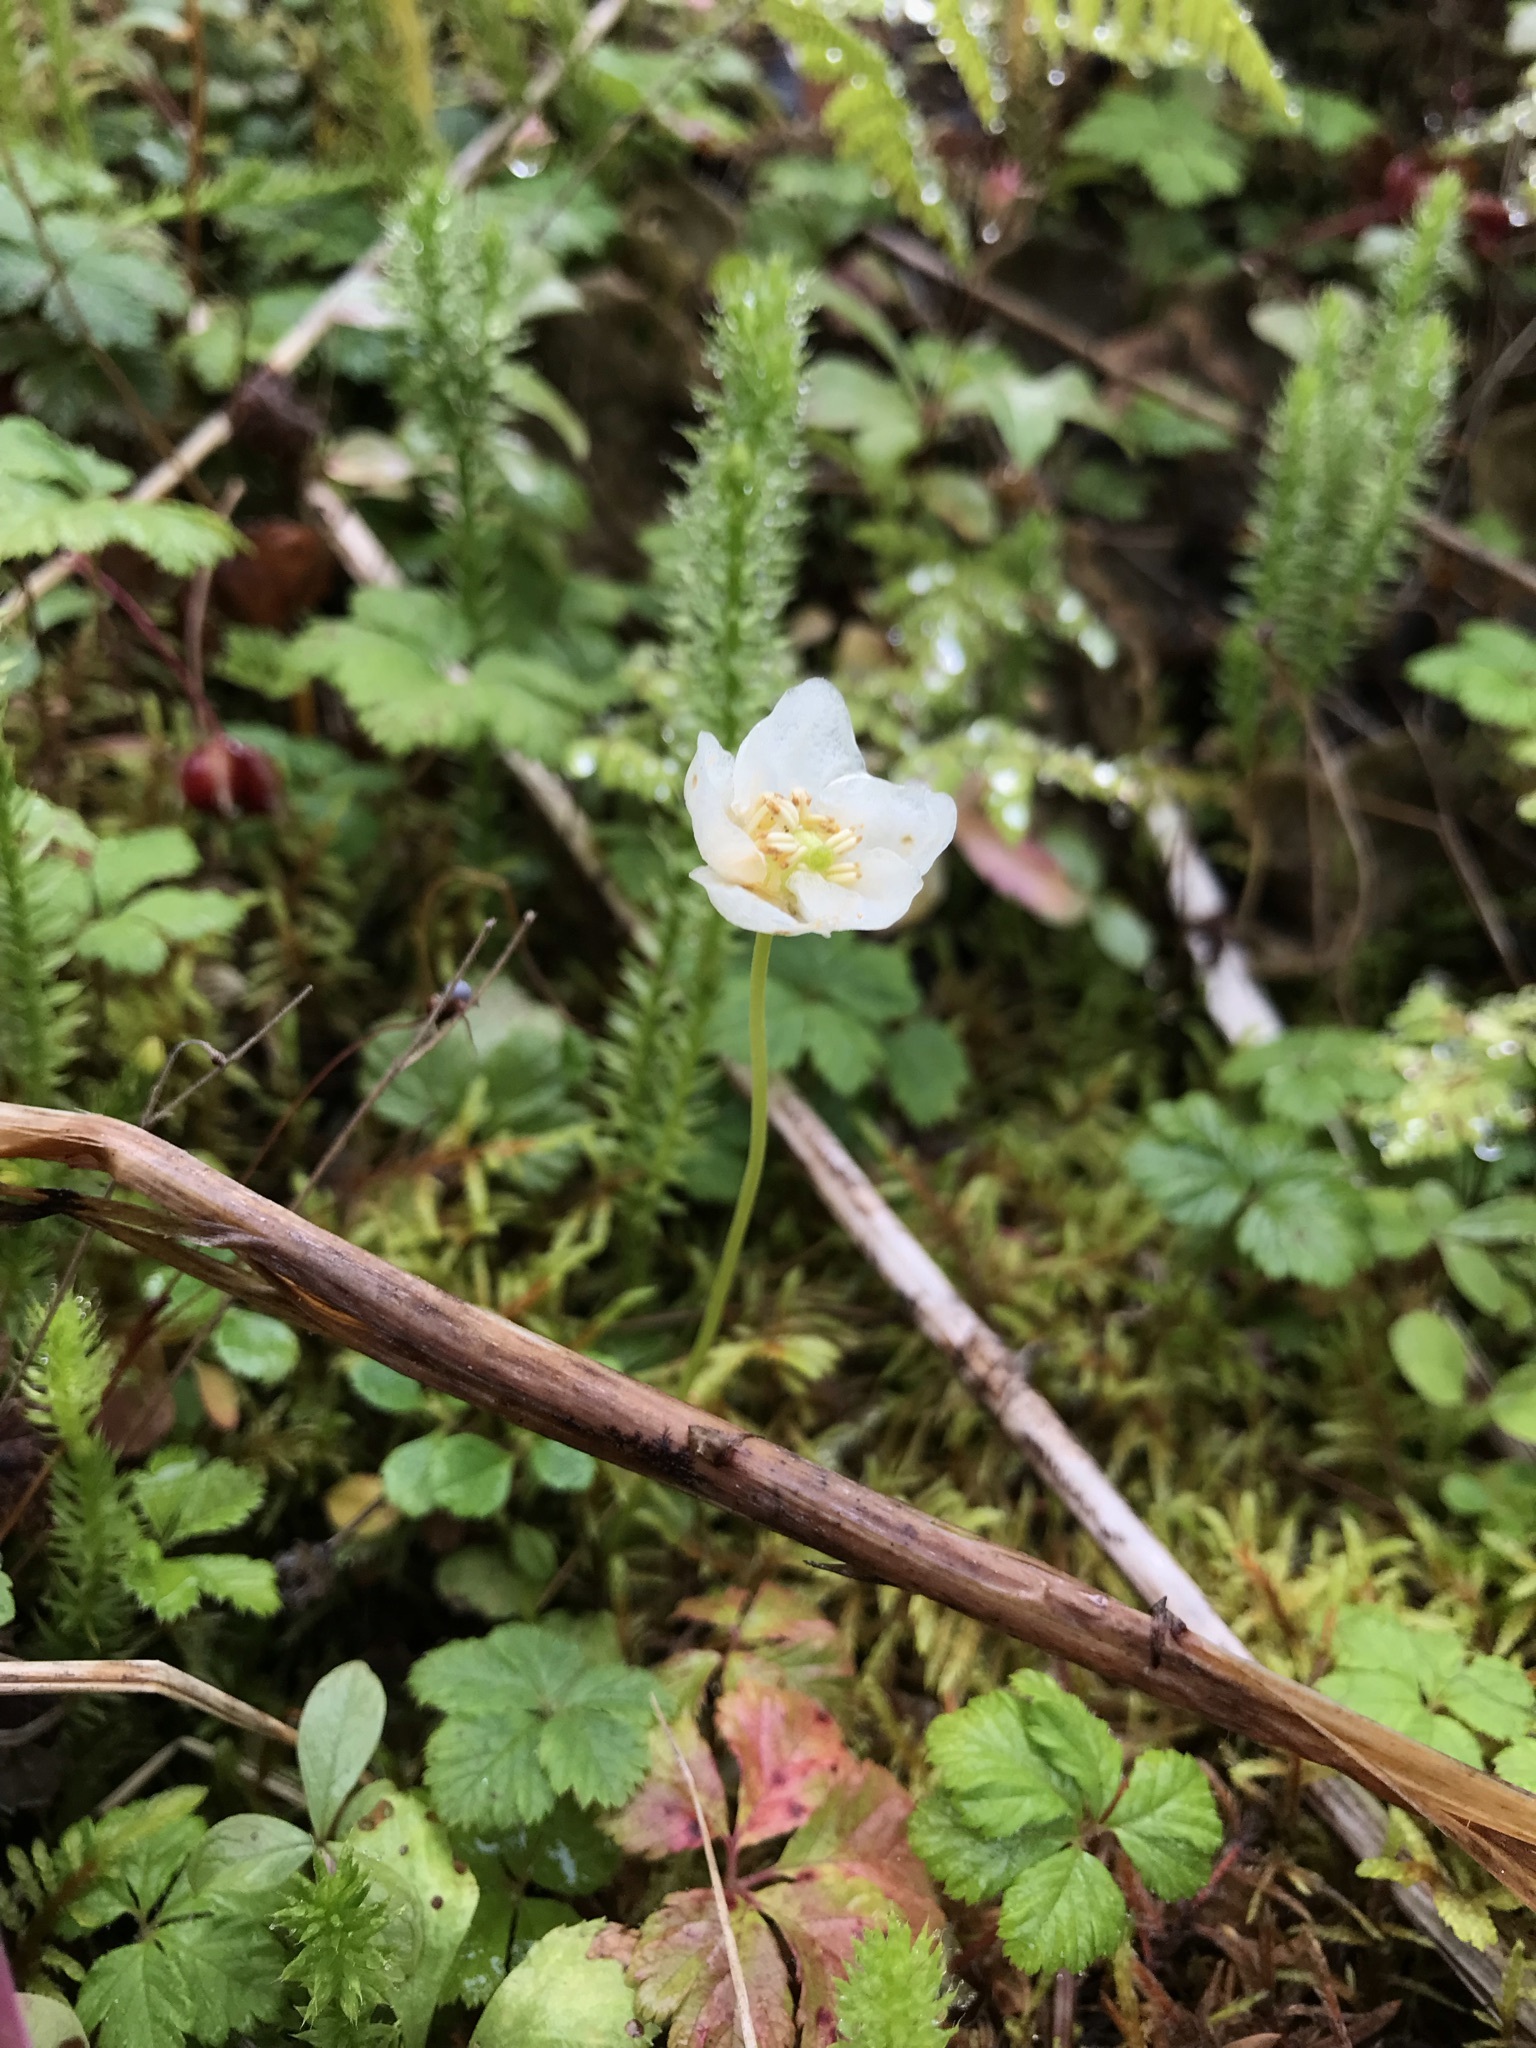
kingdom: Plantae
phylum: Tracheophyta
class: Magnoliopsida
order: Ericales
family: Ericaceae
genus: Moneses
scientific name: Moneses uniflora
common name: One-flowered wintergreen
